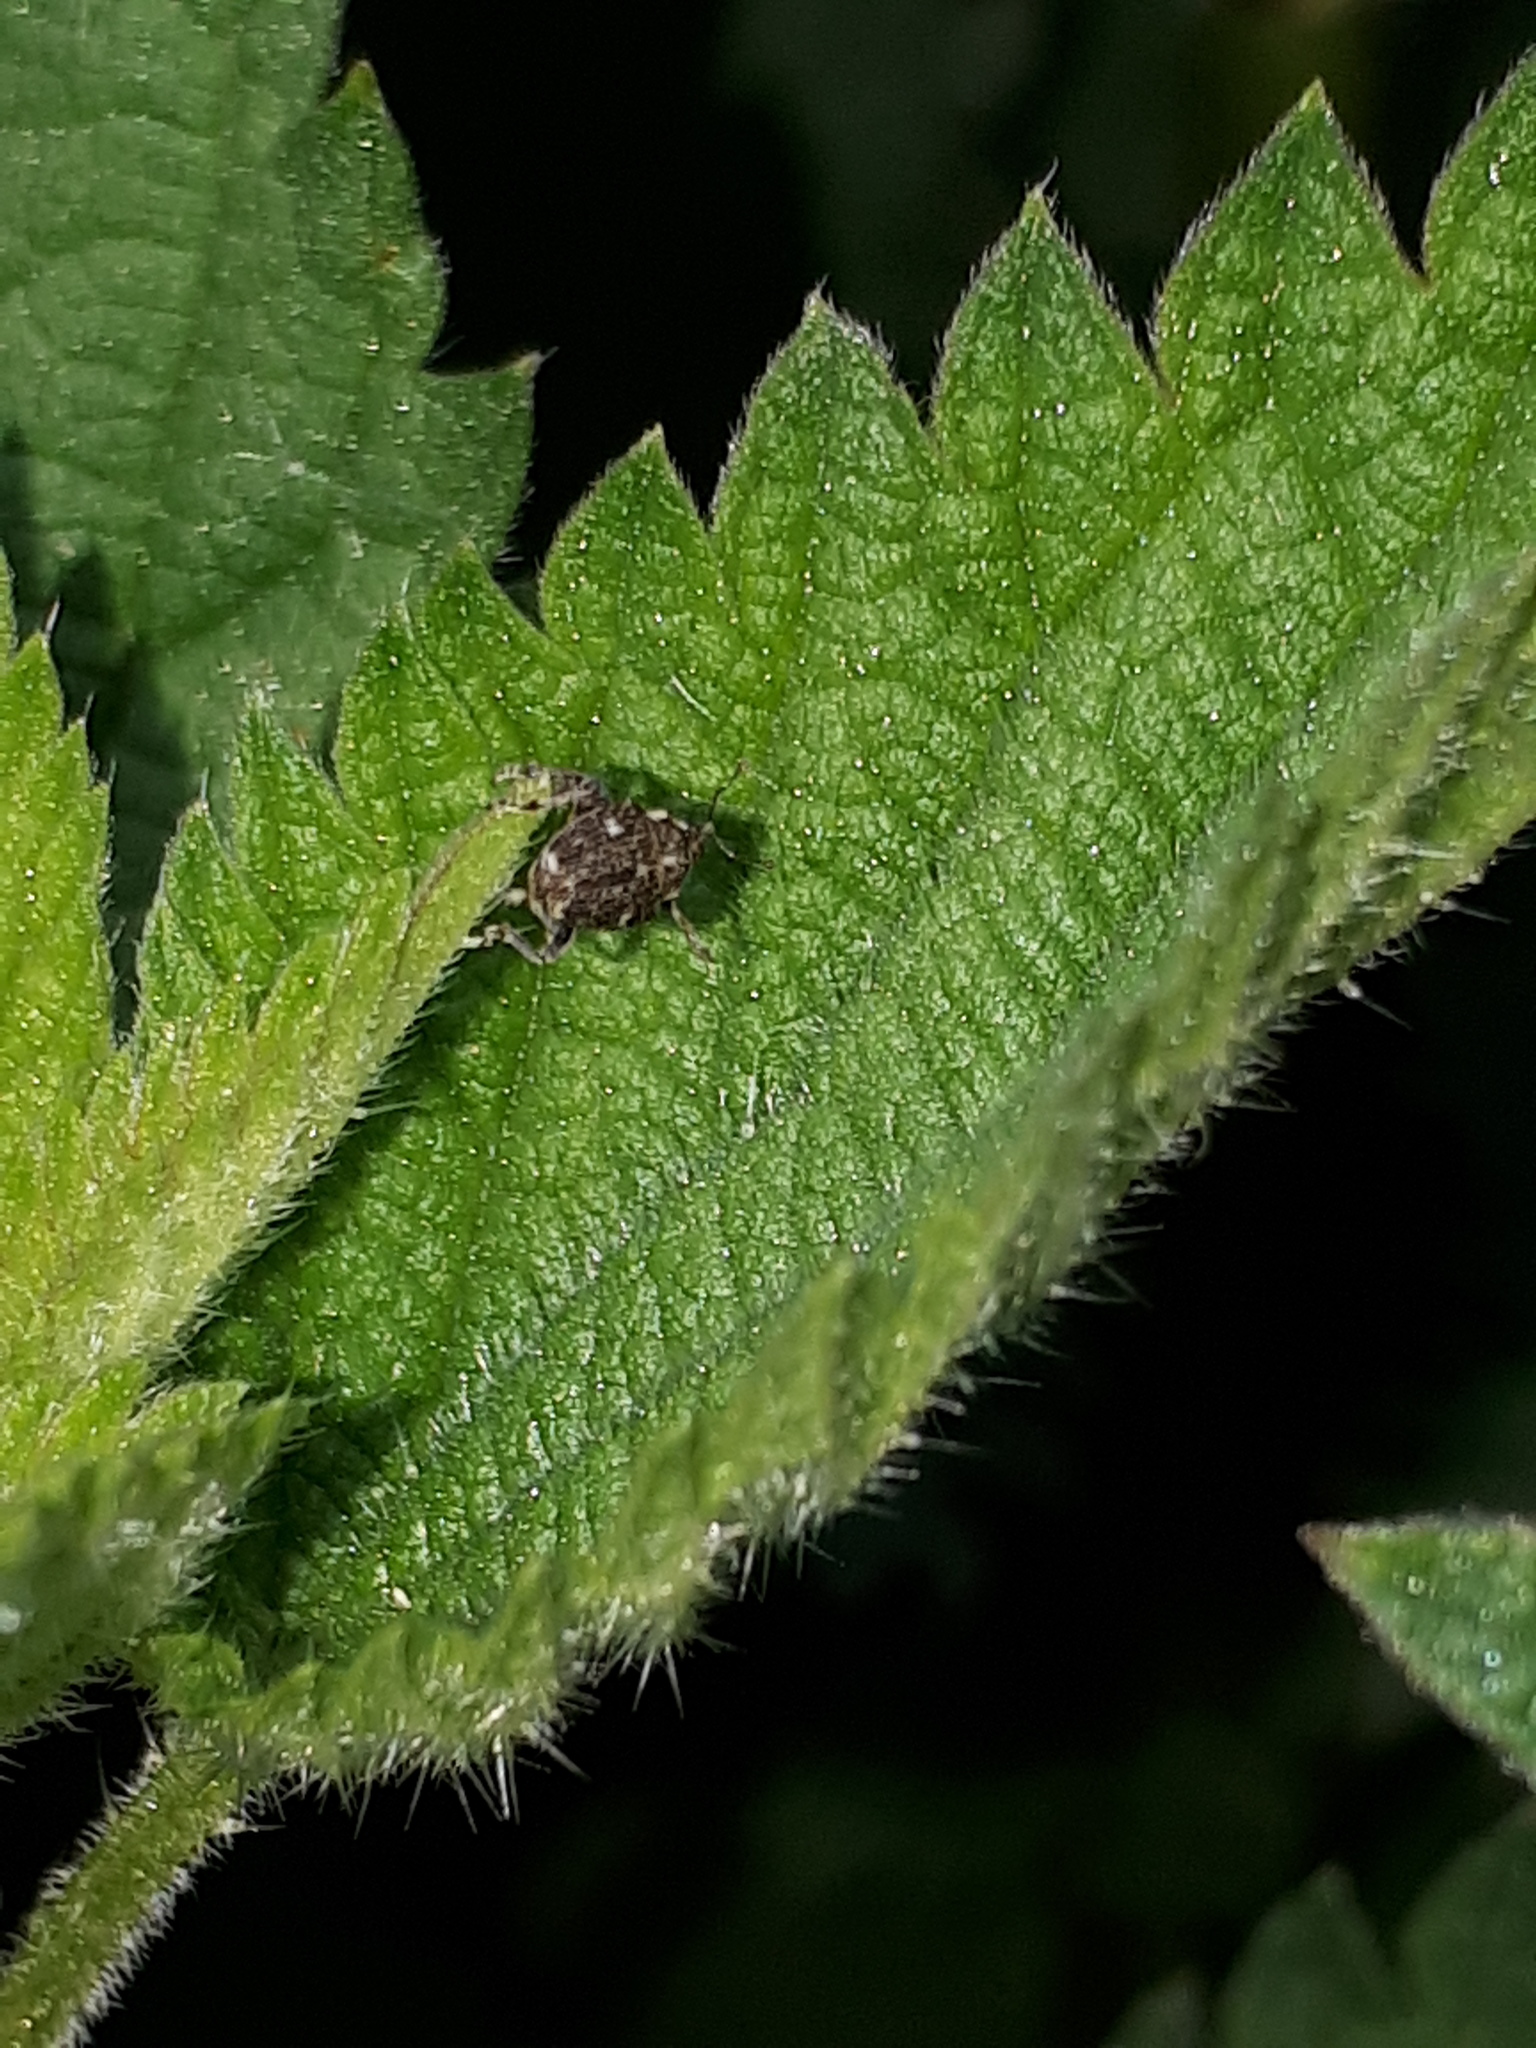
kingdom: Animalia
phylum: Arthropoda
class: Insecta
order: Coleoptera
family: Curculionidae
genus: Nedyus
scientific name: Nedyus quadrimaculatus
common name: Small nettle weevil
